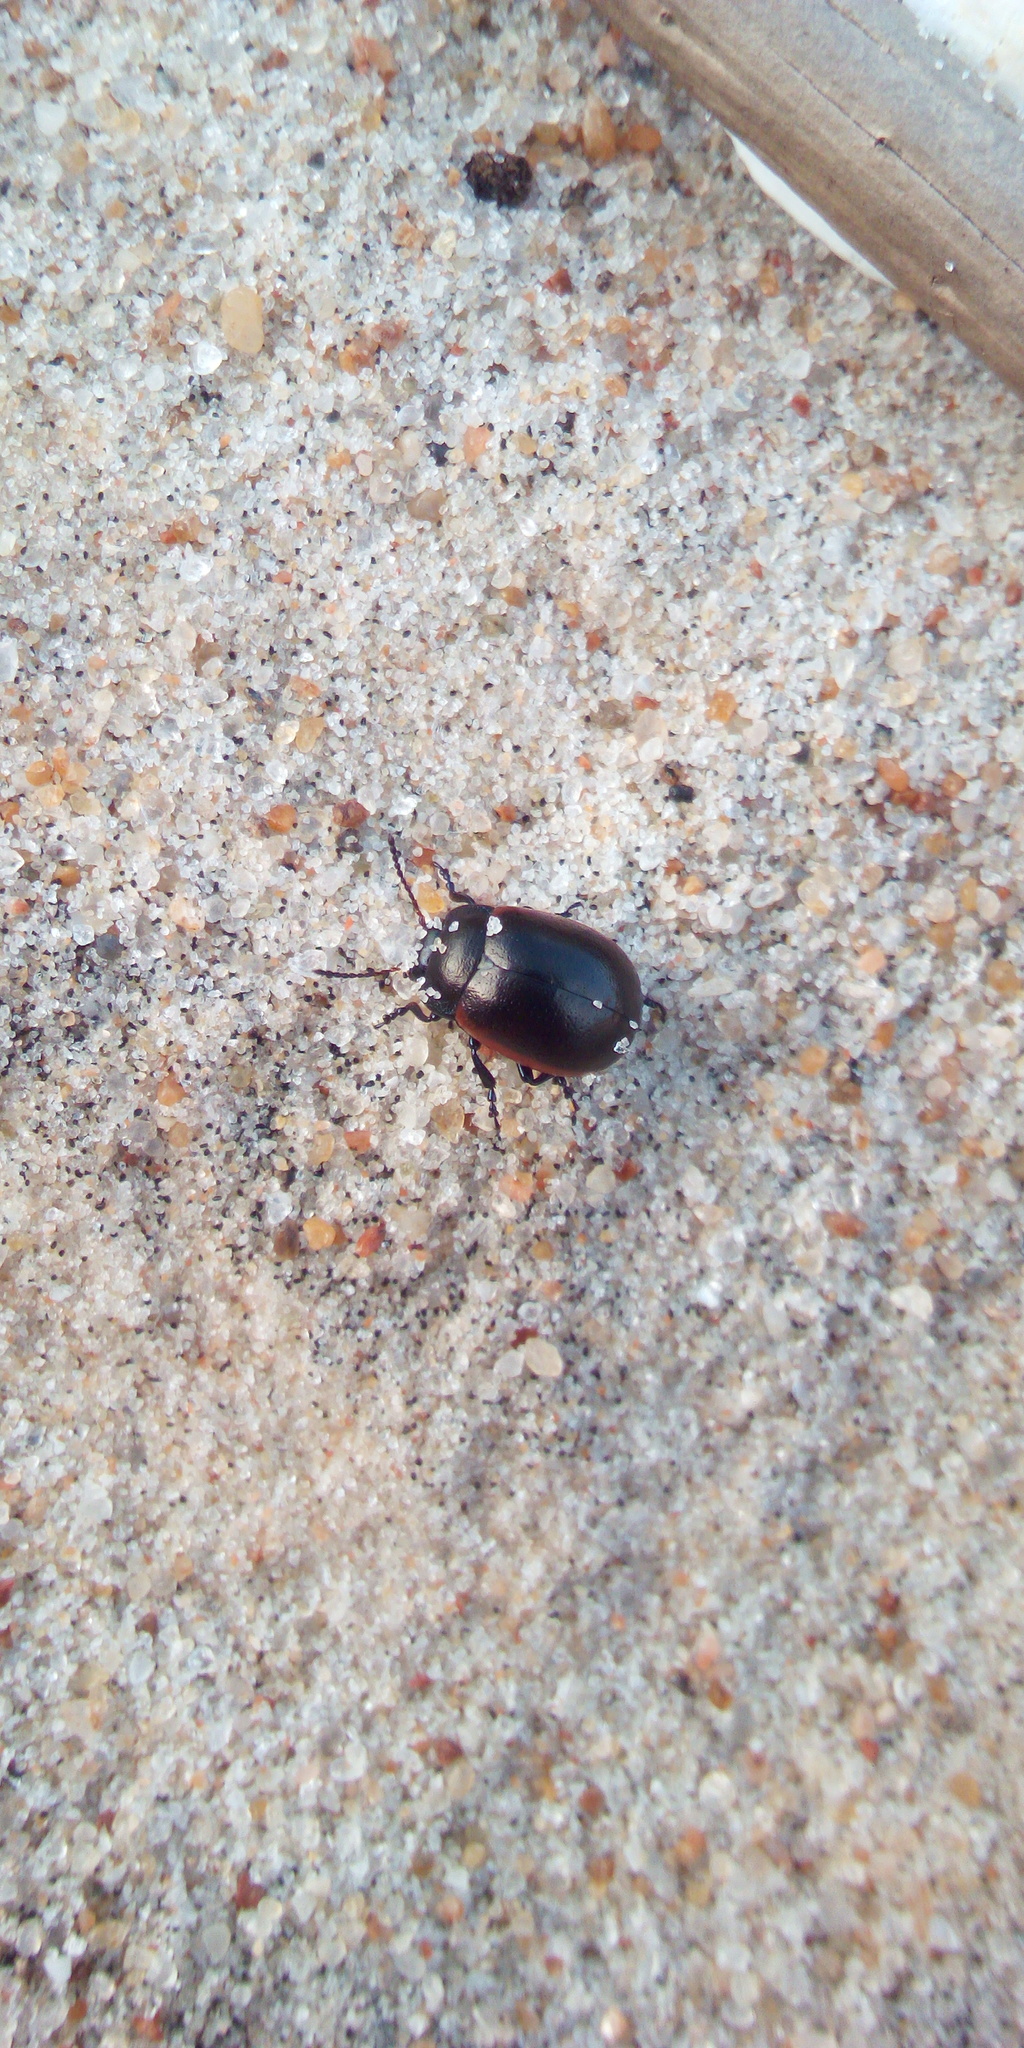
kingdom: Animalia
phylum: Arthropoda
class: Insecta
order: Coleoptera
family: Chrysomelidae
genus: Chrysolina
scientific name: Chrysolina carnifex
